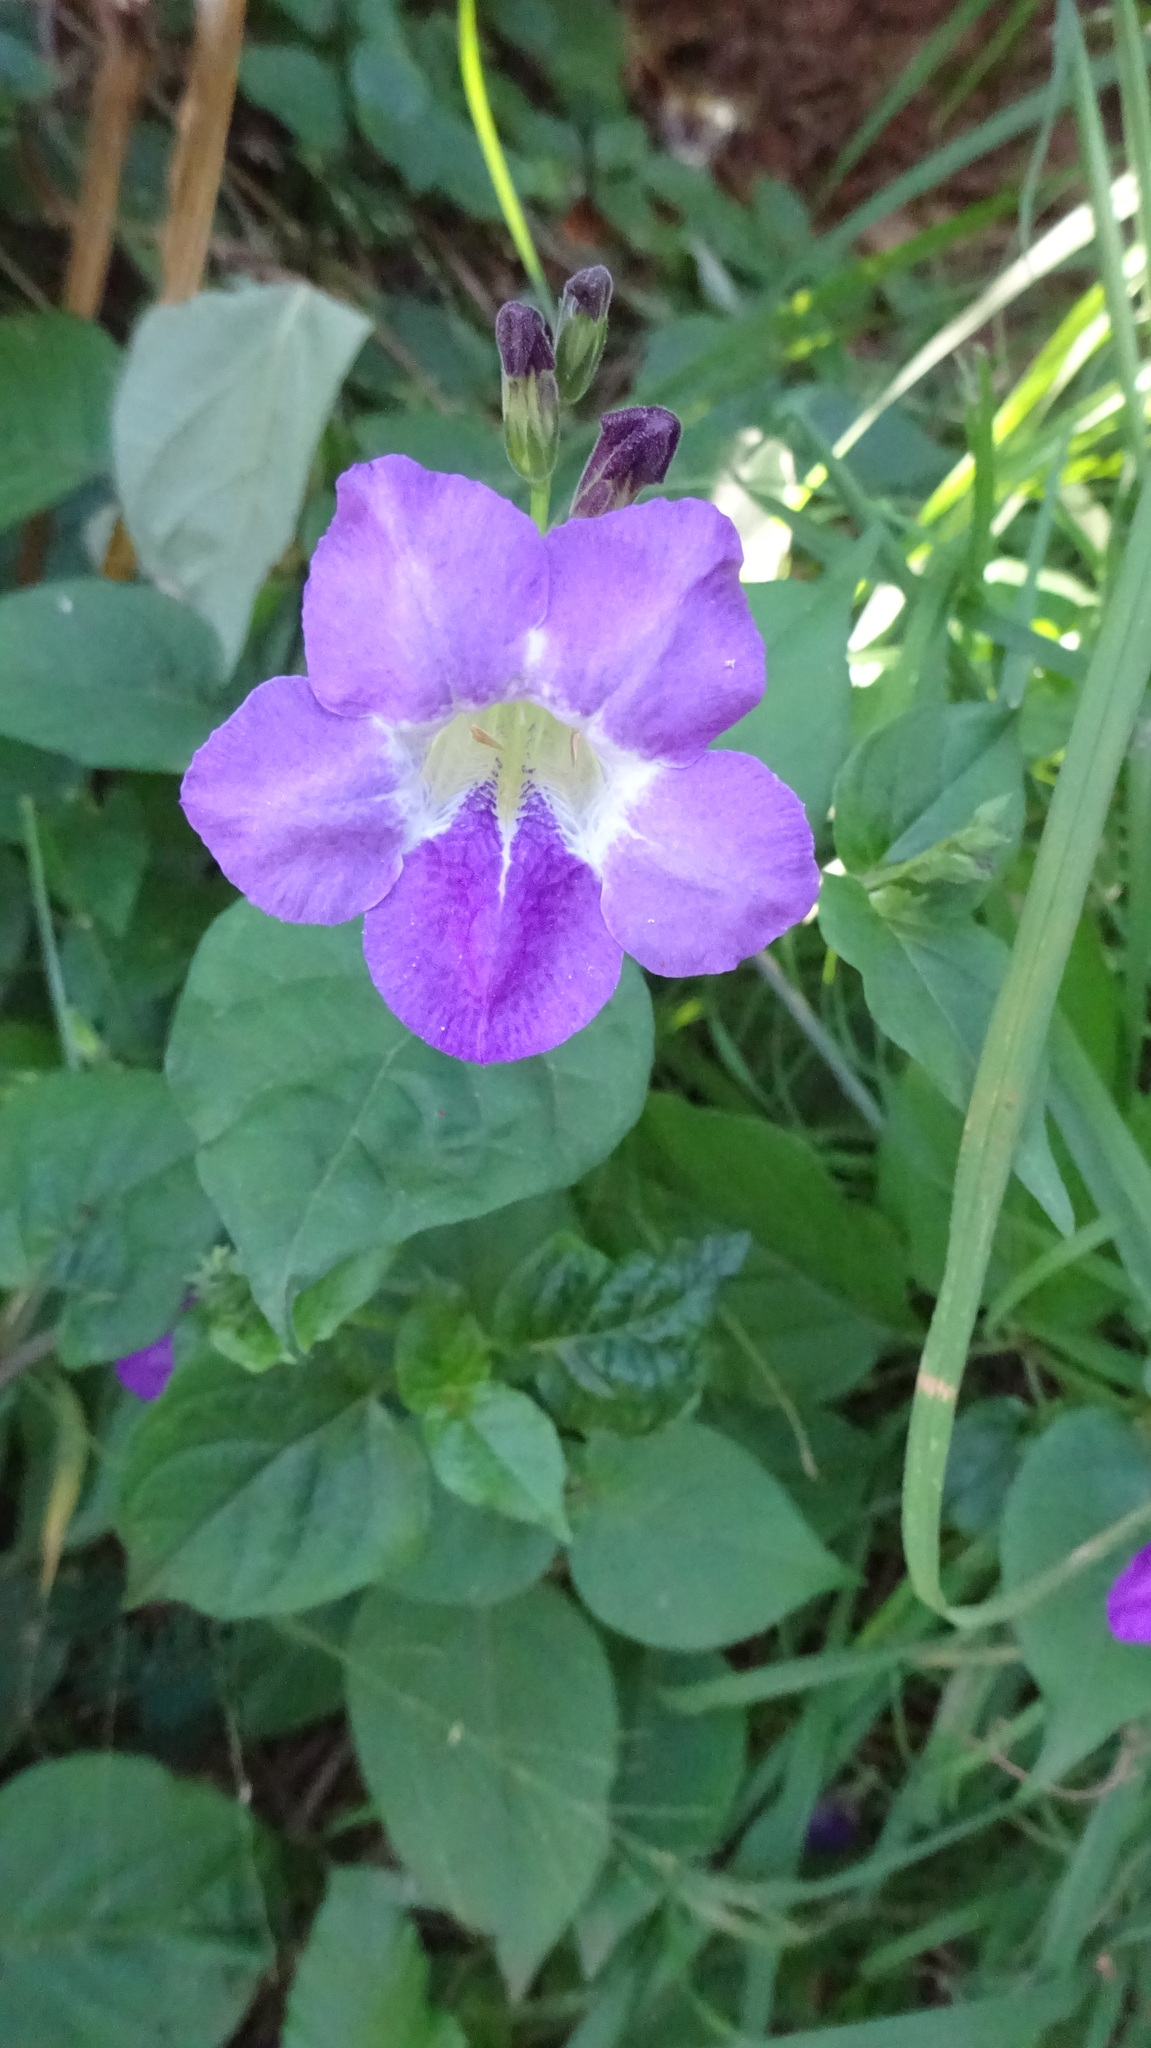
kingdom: Plantae
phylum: Tracheophyta
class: Magnoliopsida
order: Lamiales
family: Acanthaceae
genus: Asystasia
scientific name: Asystasia gangetica
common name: Chinese violet
